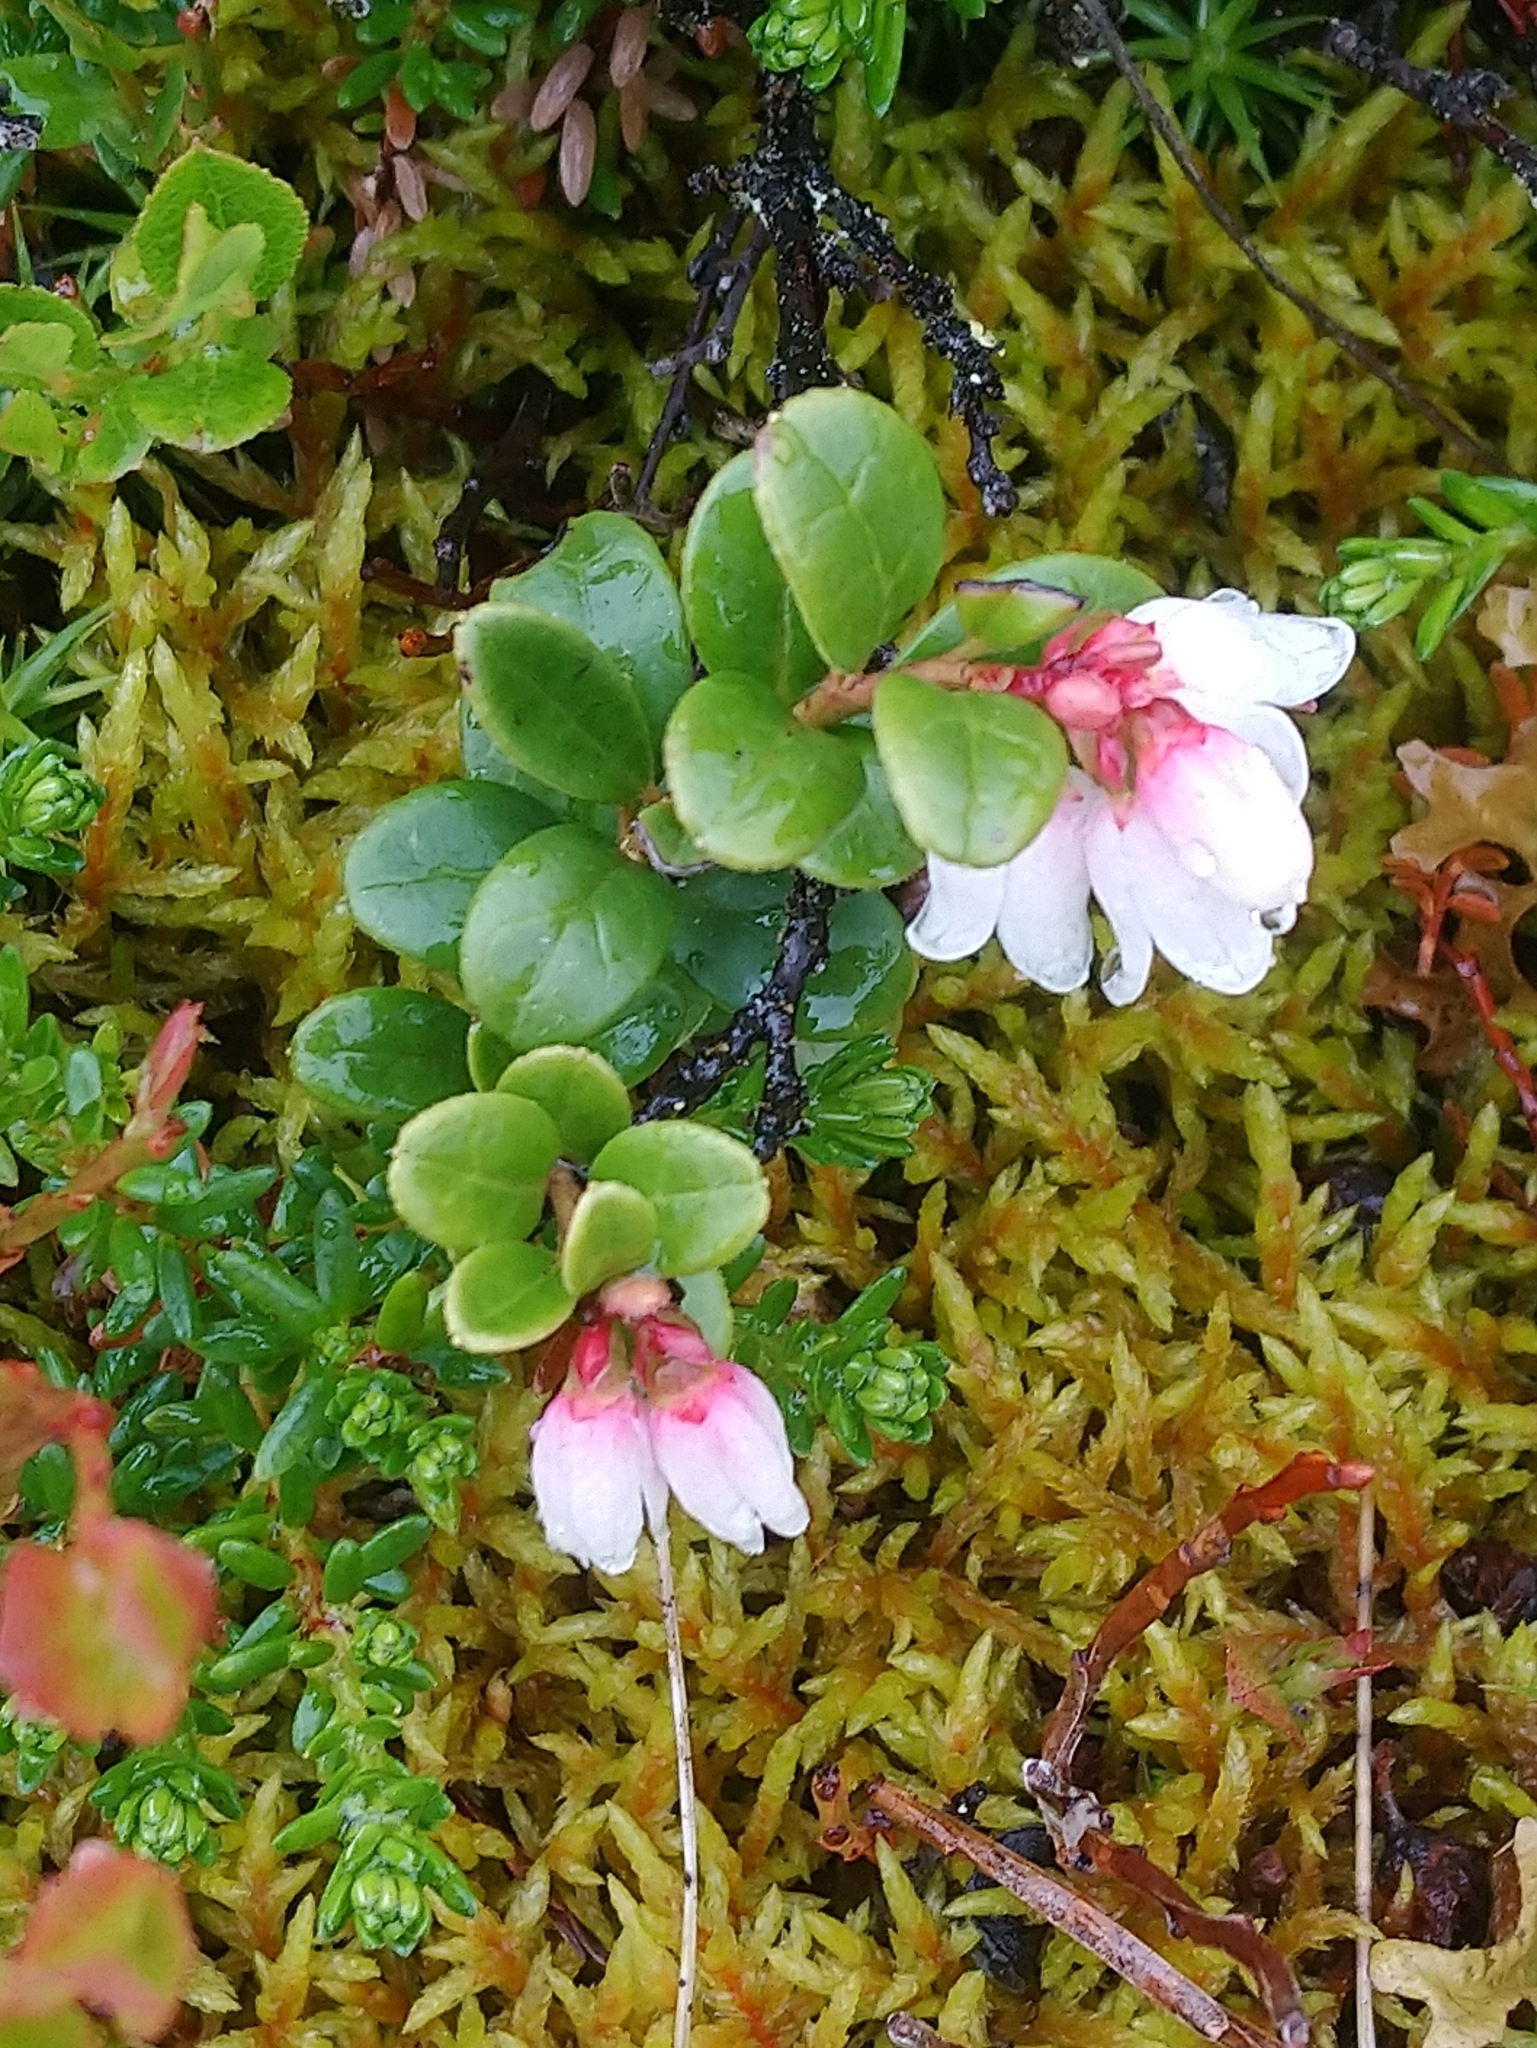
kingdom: Plantae
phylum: Tracheophyta
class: Magnoliopsida
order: Ericales
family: Ericaceae
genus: Vaccinium
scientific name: Vaccinium vitis-idaea
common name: Cowberry
